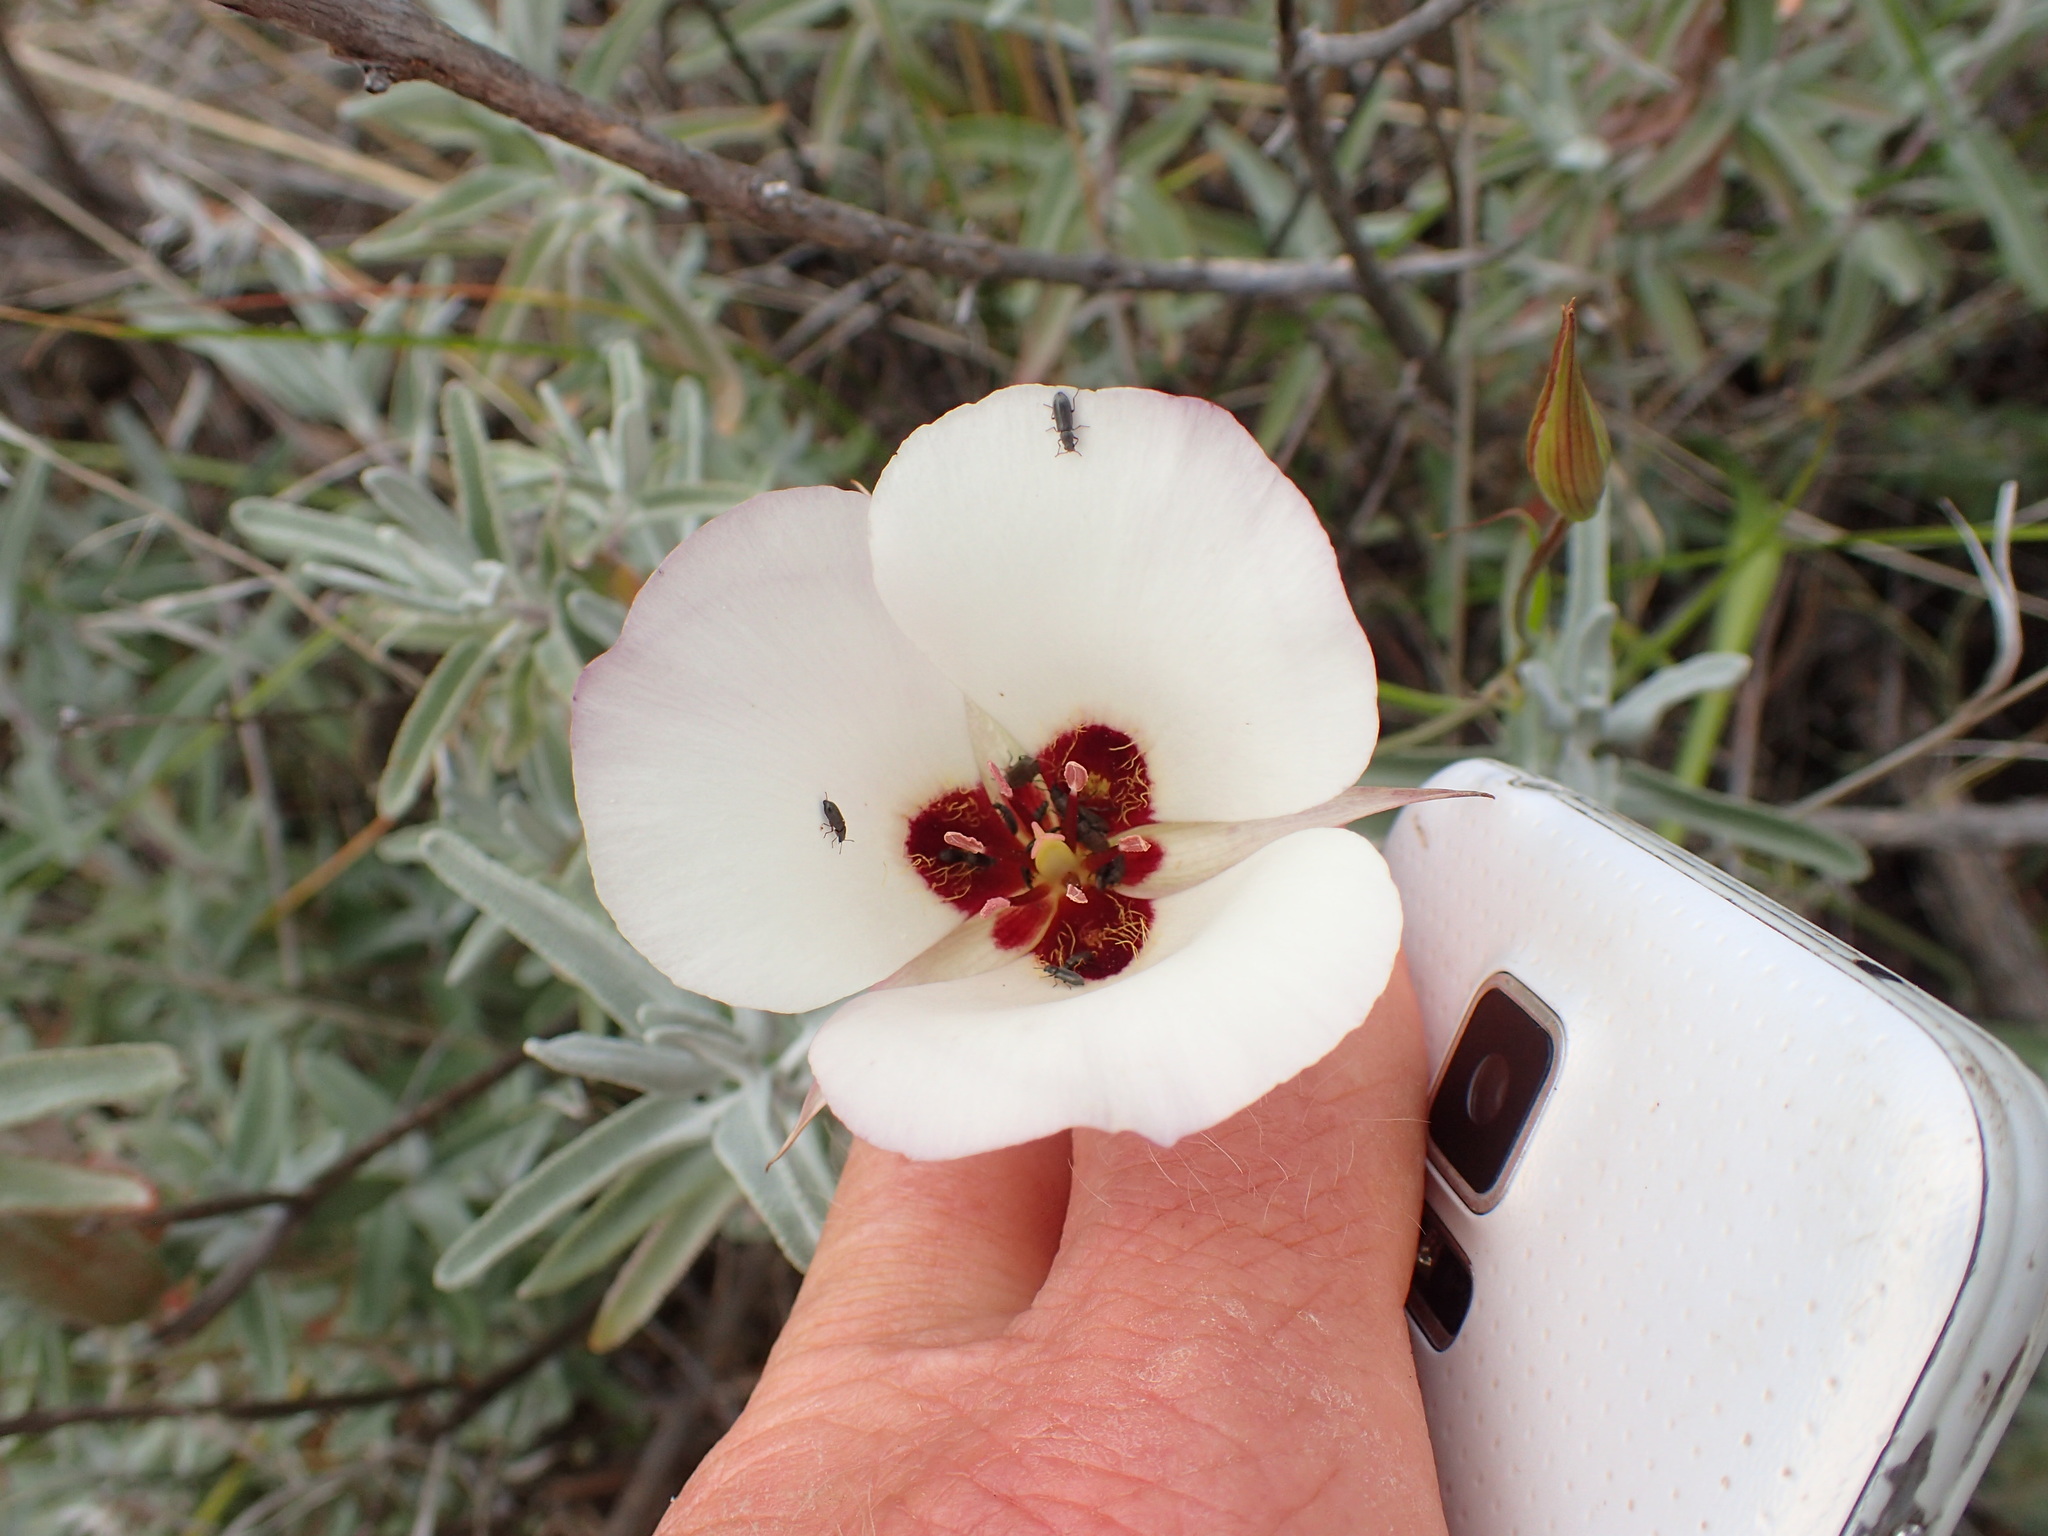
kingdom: Plantae
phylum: Tracheophyta
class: Liliopsida
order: Liliales
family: Liliaceae
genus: Calochortus
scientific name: Calochortus catalinae
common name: Catalina mariposa-lily
